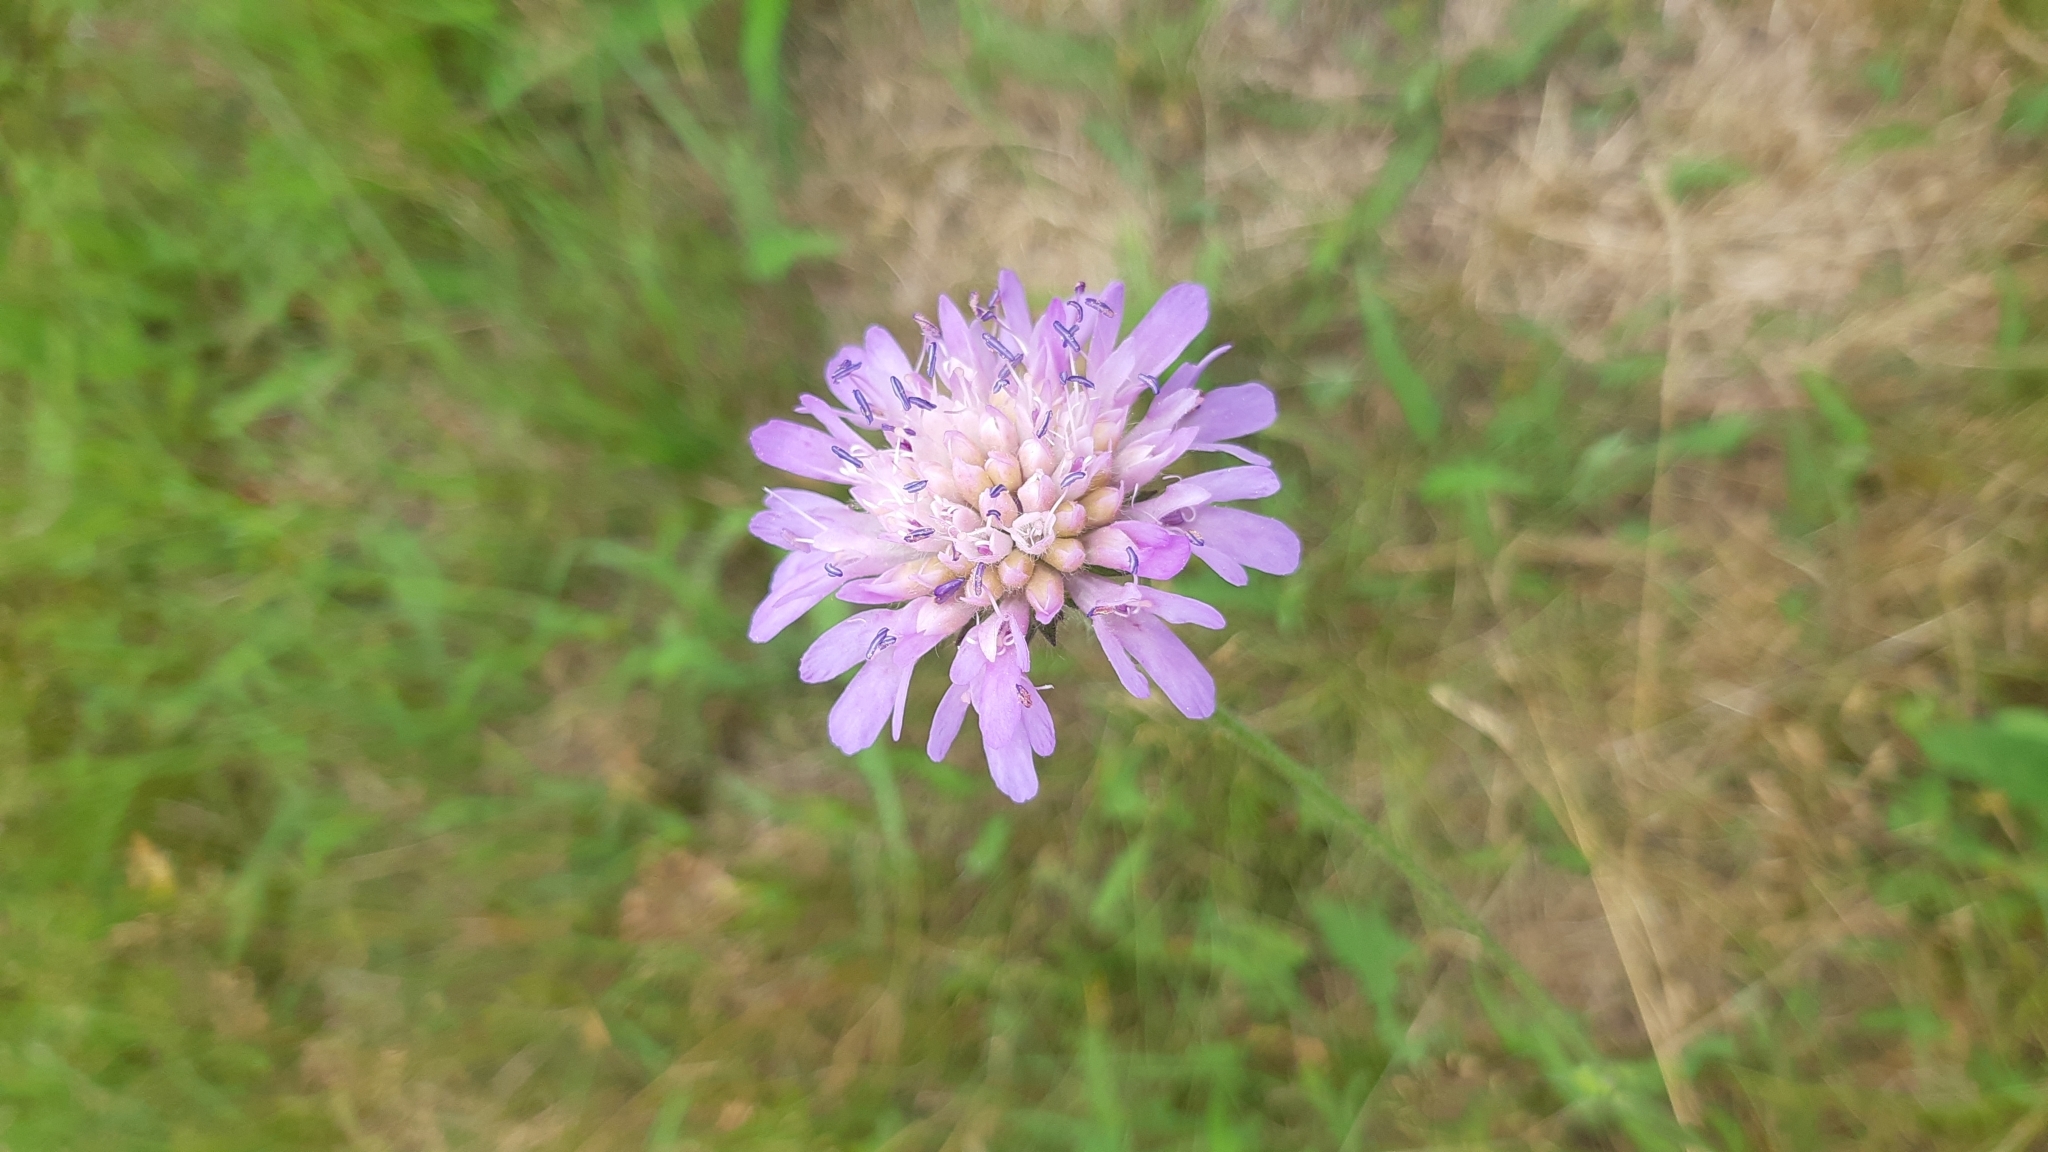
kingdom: Plantae
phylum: Tracheophyta
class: Magnoliopsida
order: Dipsacales
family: Caprifoliaceae
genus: Knautia
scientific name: Knautia arvensis
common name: Field scabiosa
